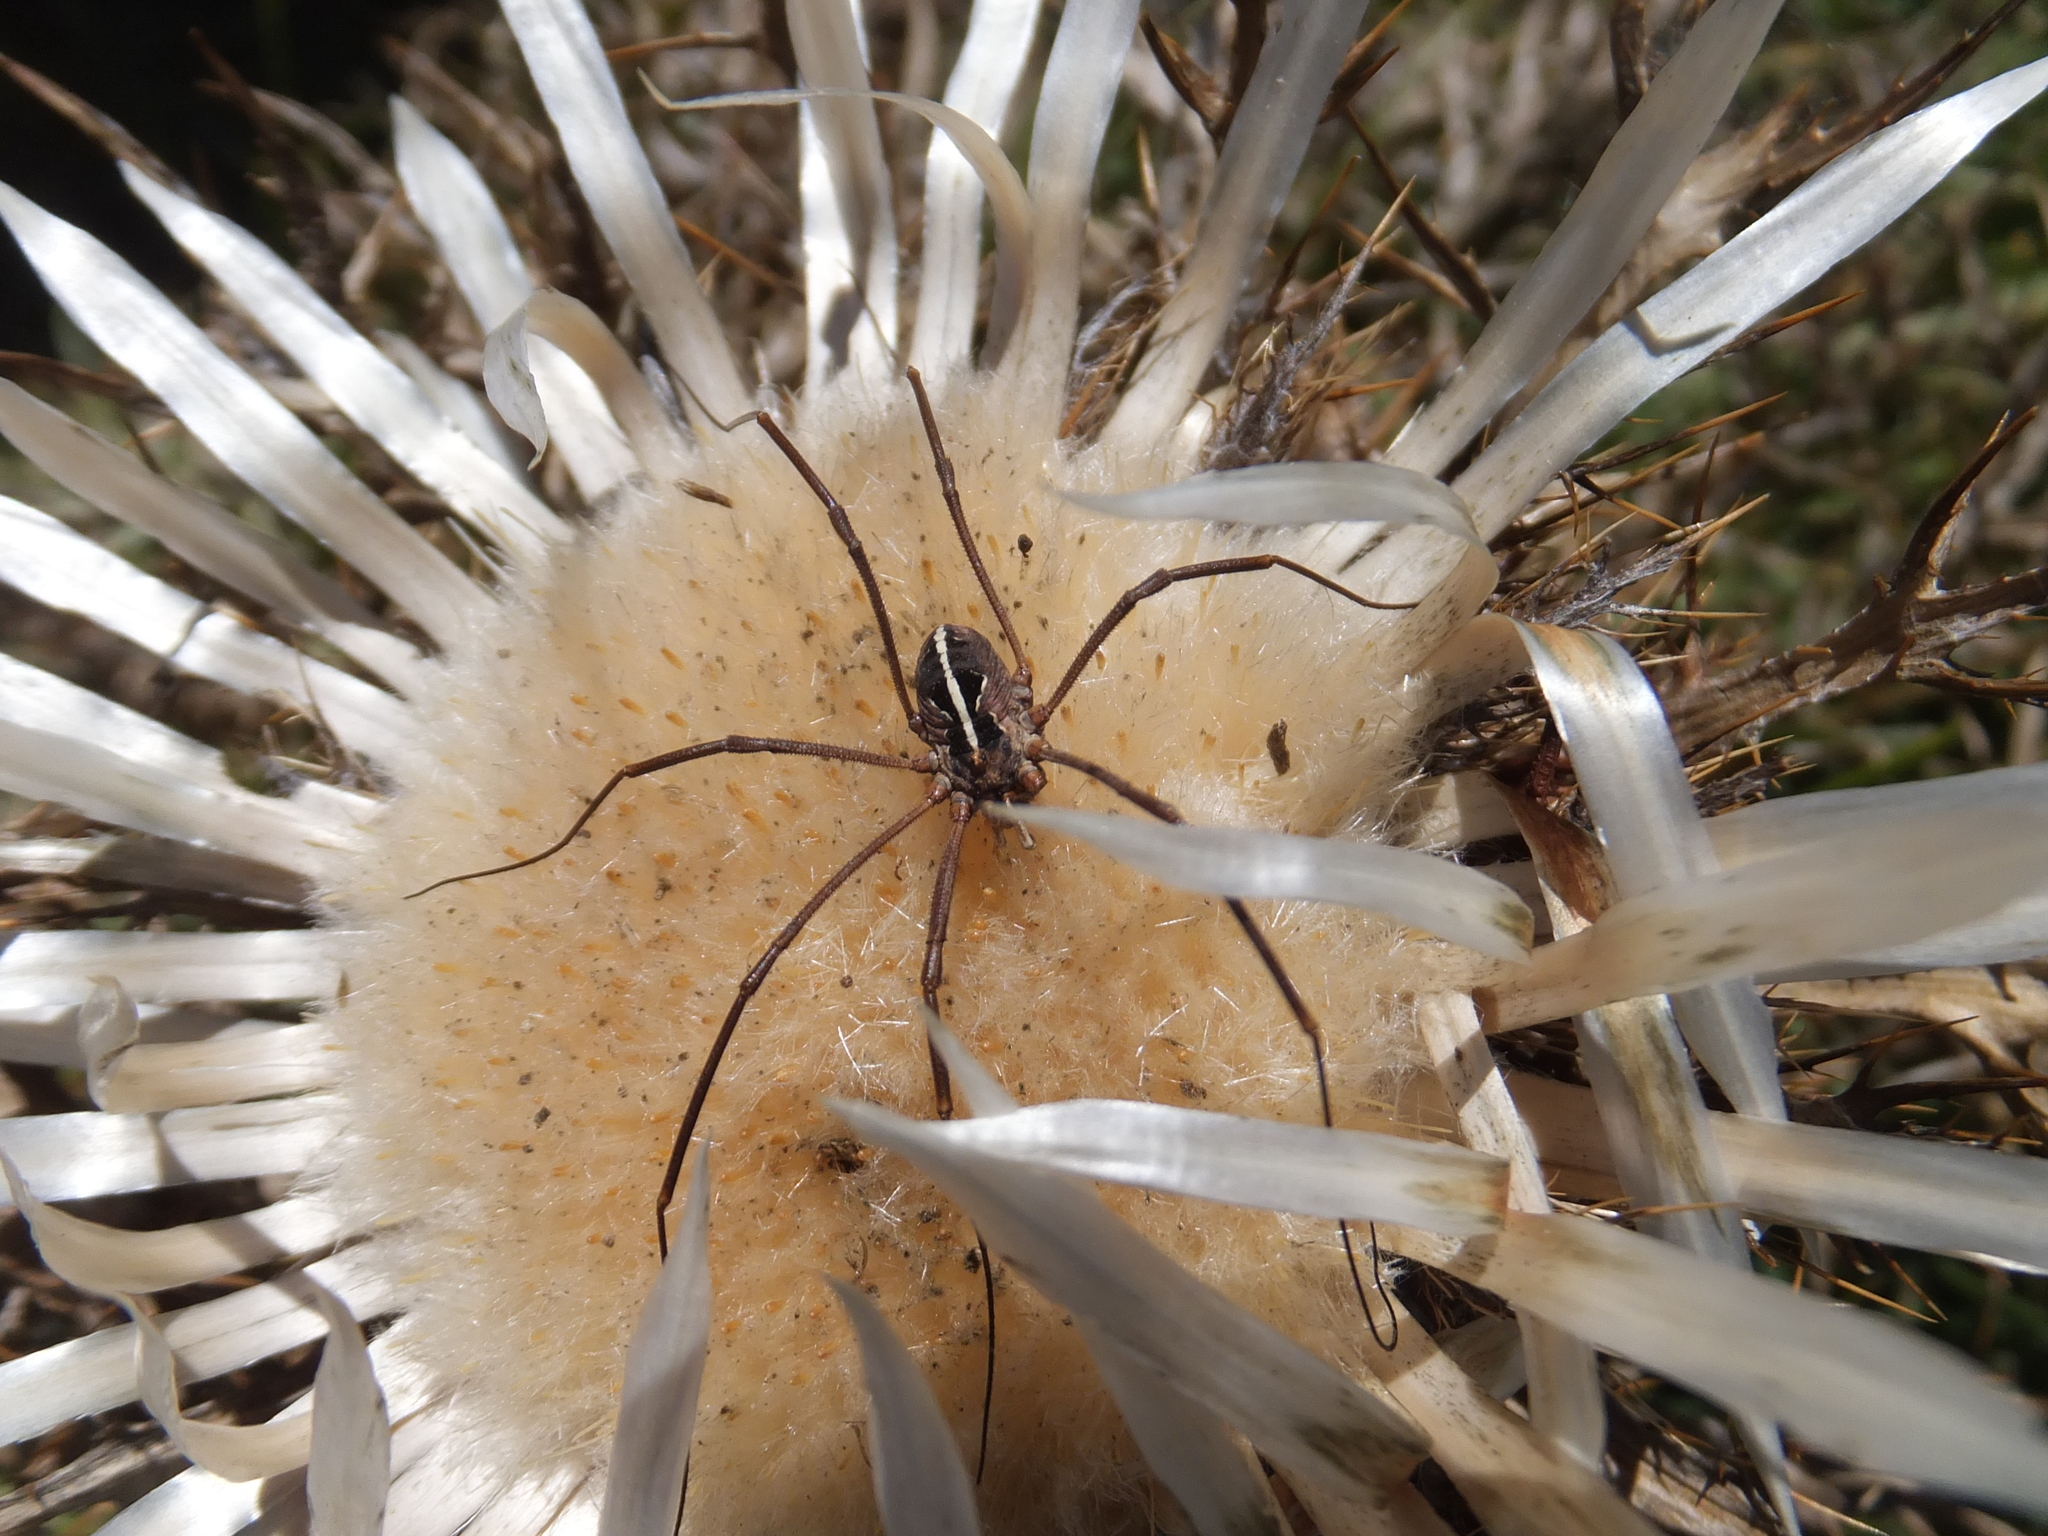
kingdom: Animalia
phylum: Arthropoda
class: Arachnida
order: Opiliones
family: Phalangiidae
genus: Metaphalangium
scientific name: Metaphalangium cirtanum
